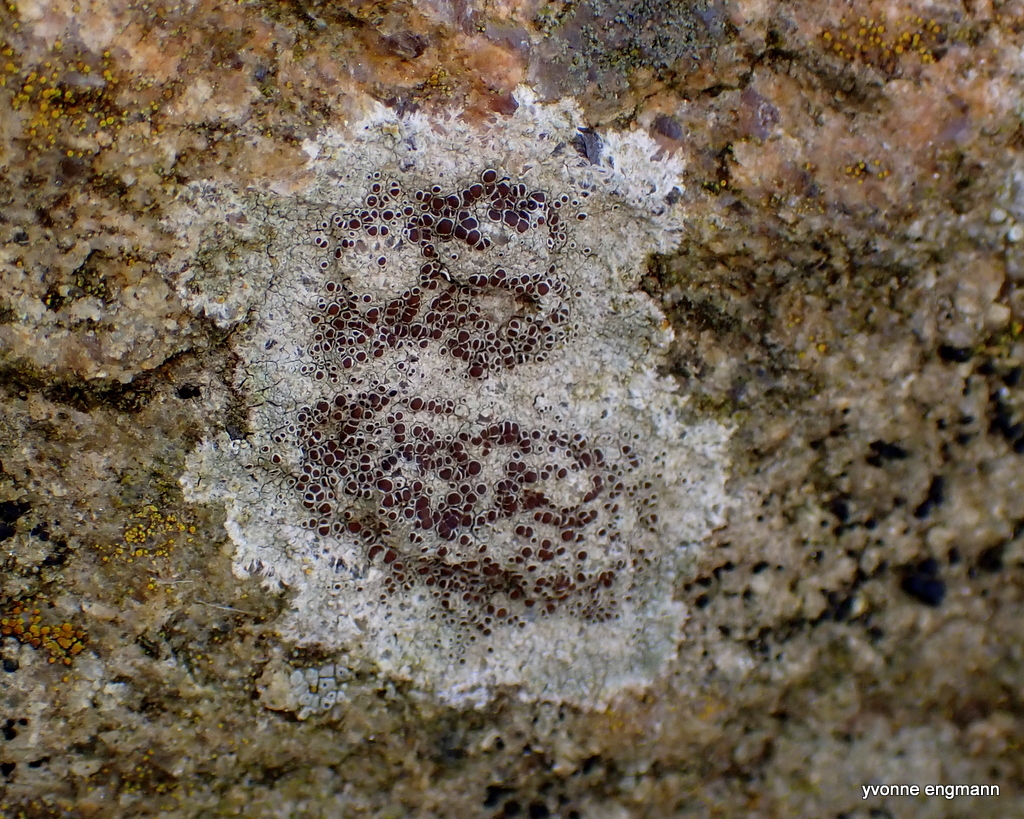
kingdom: Fungi
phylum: Ascomycota
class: Lecanoromycetes
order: Lecanorales
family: Lecanoraceae
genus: Lecanora
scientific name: Lecanora campestris
